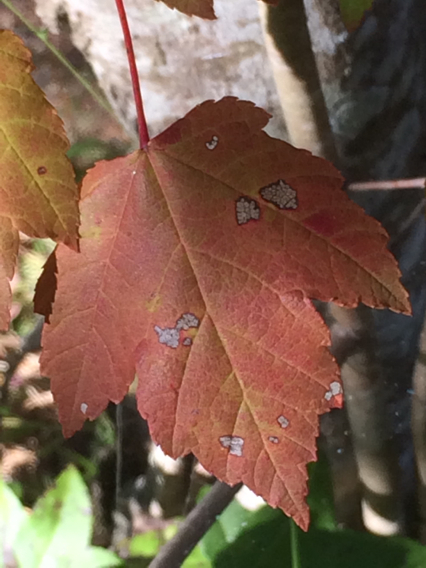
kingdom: Plantae
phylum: Tracheophyta
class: Magnoliopsida
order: Sapindales
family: Sapindaceae
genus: Acer
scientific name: Acer rubrum
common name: Red maple
